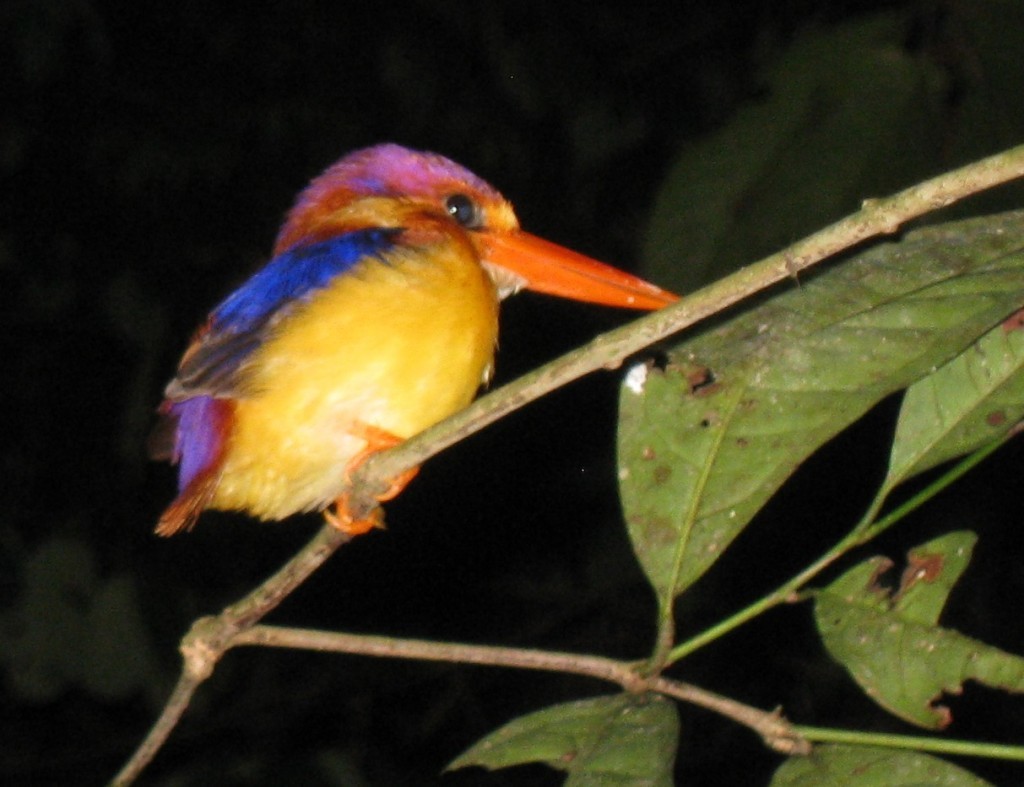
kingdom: Animalia
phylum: Chordata
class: Aves
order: Coraciiformes
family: Alcedinidae
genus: Ceyx
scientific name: Ceyx erithaca
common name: Oriental dwarf kingfisher
